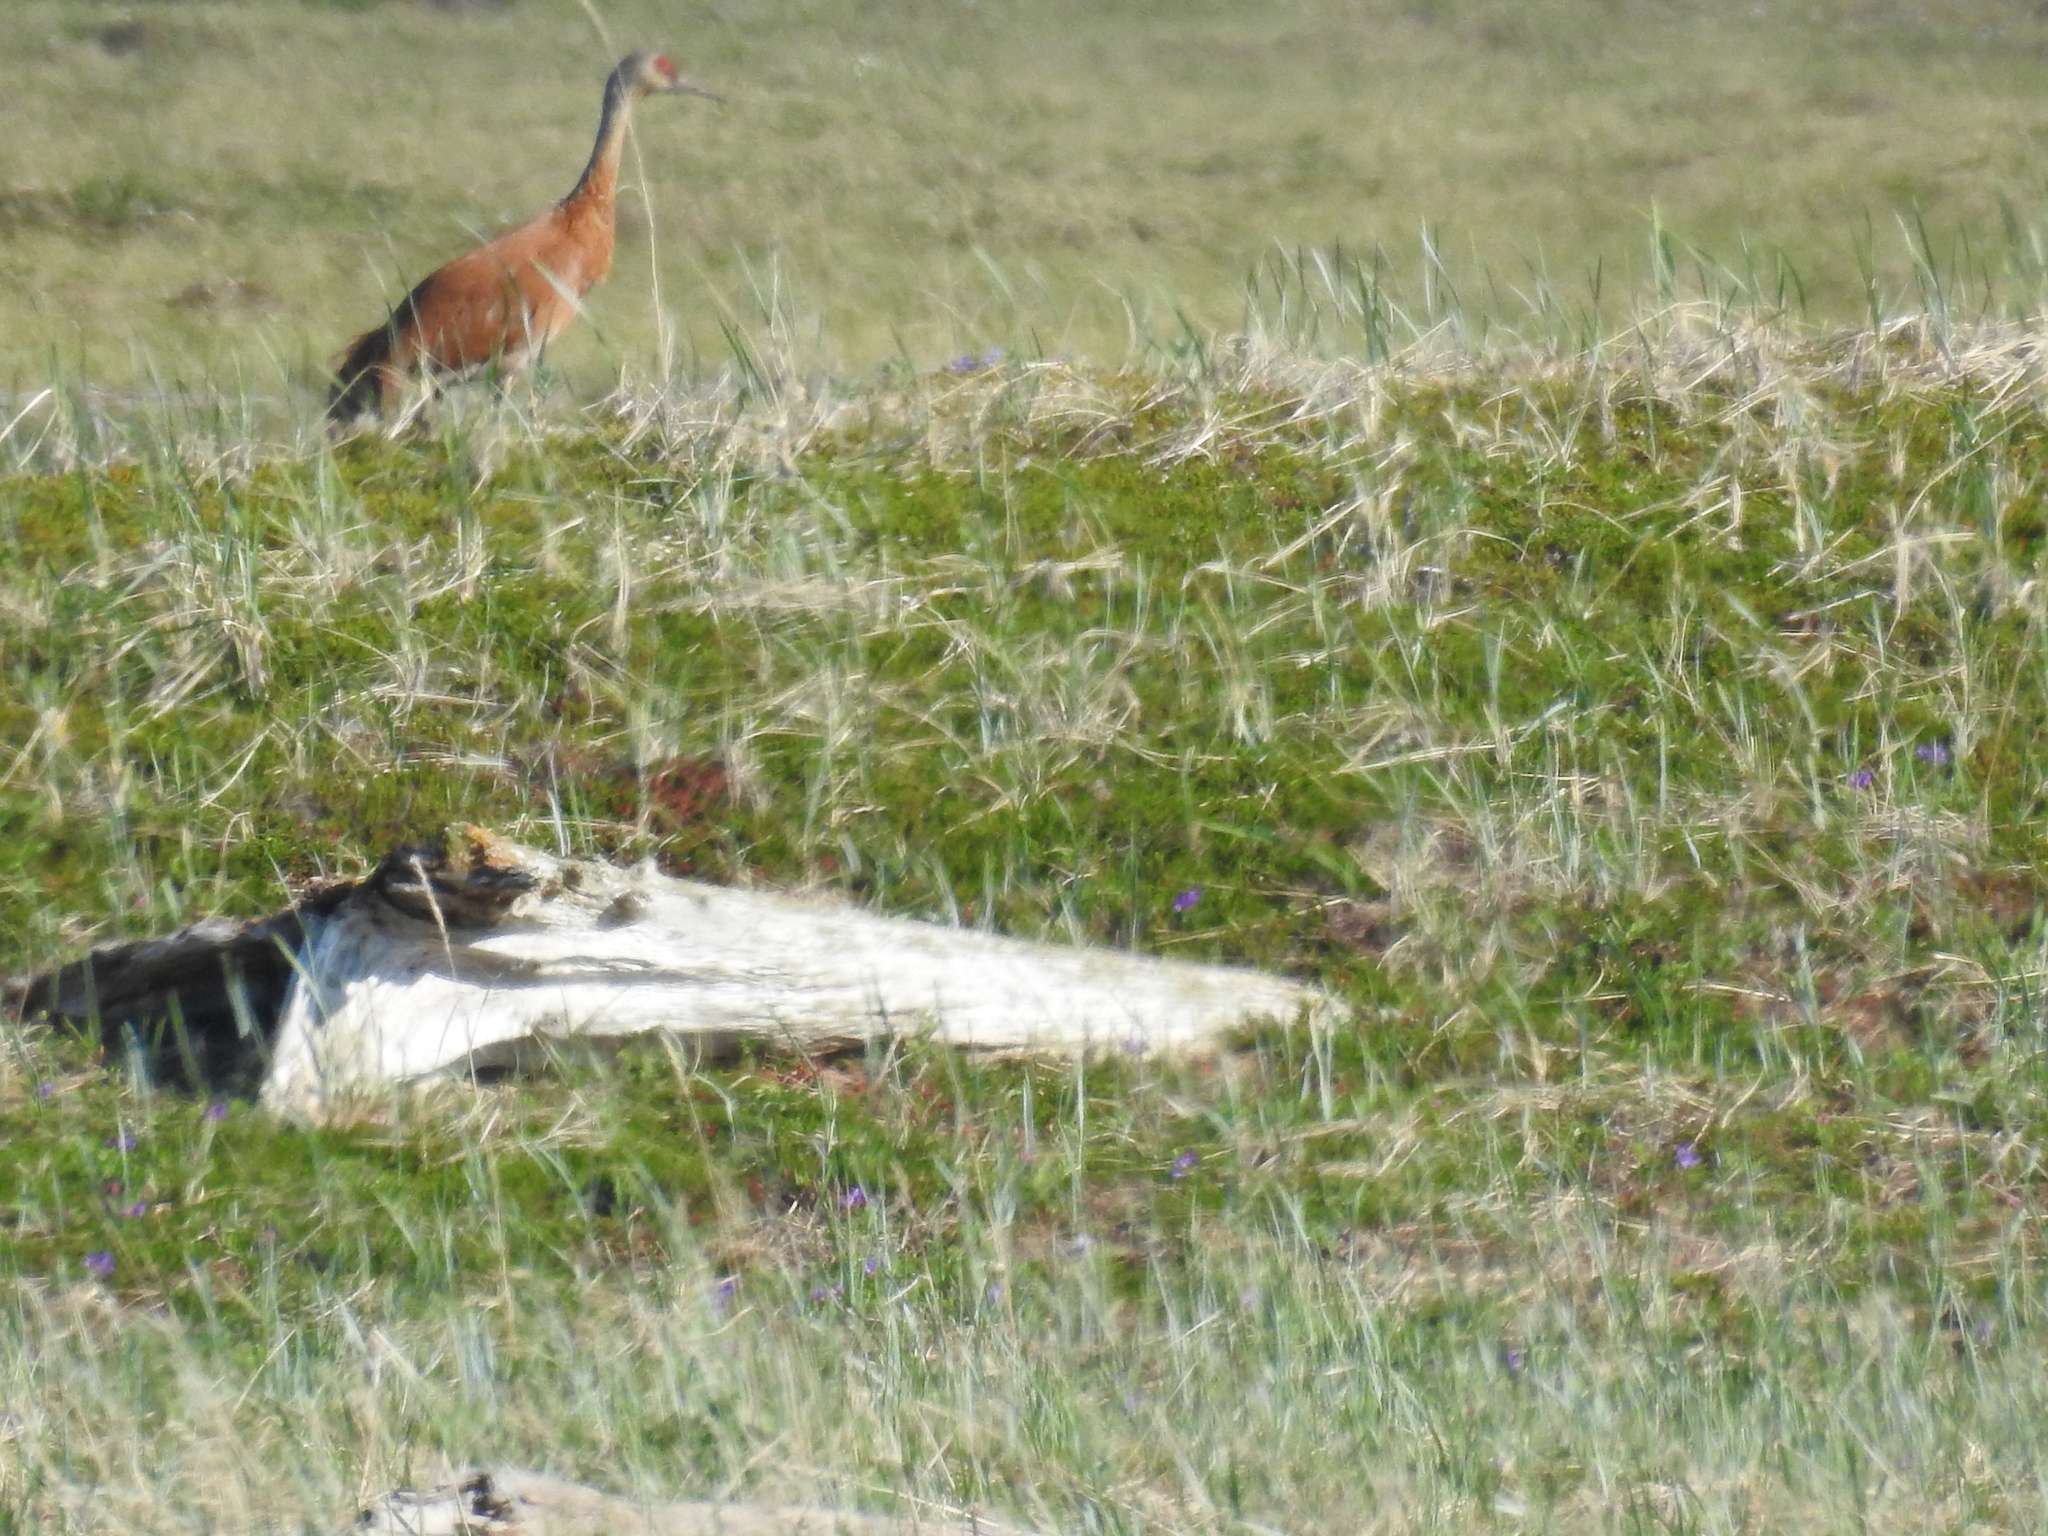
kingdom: Animalia
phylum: Chordata
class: Aves
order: Gruiformes
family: Gruidae
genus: Grus
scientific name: Grus canadensis
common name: Sandhill crane
